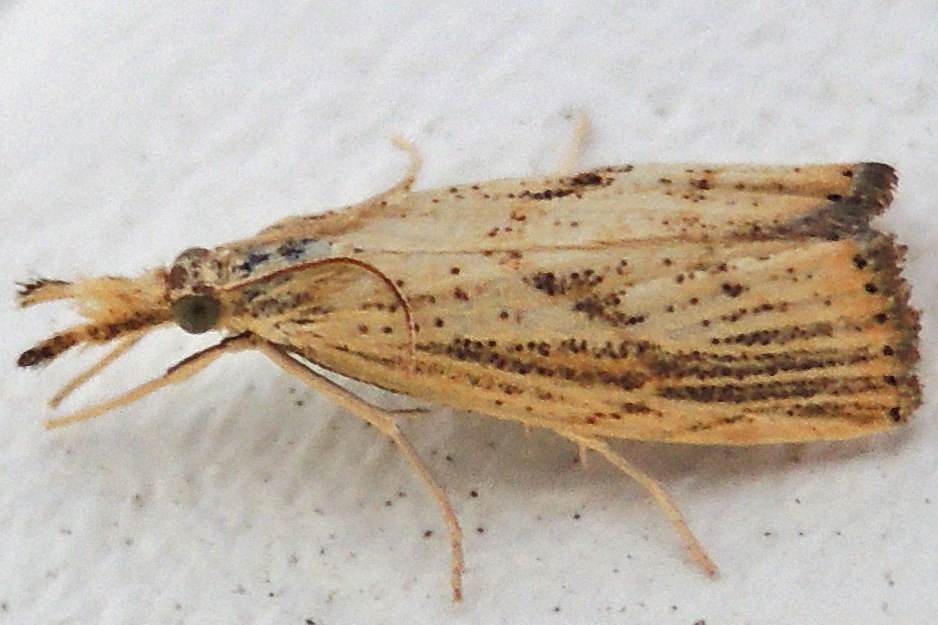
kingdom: Animalia
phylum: Arthropoda
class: Insecta
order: Lepidoptera
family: Crambidae
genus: Agriphila
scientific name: Agriphila ruricolellus
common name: Lesser vagabond sod webworm
